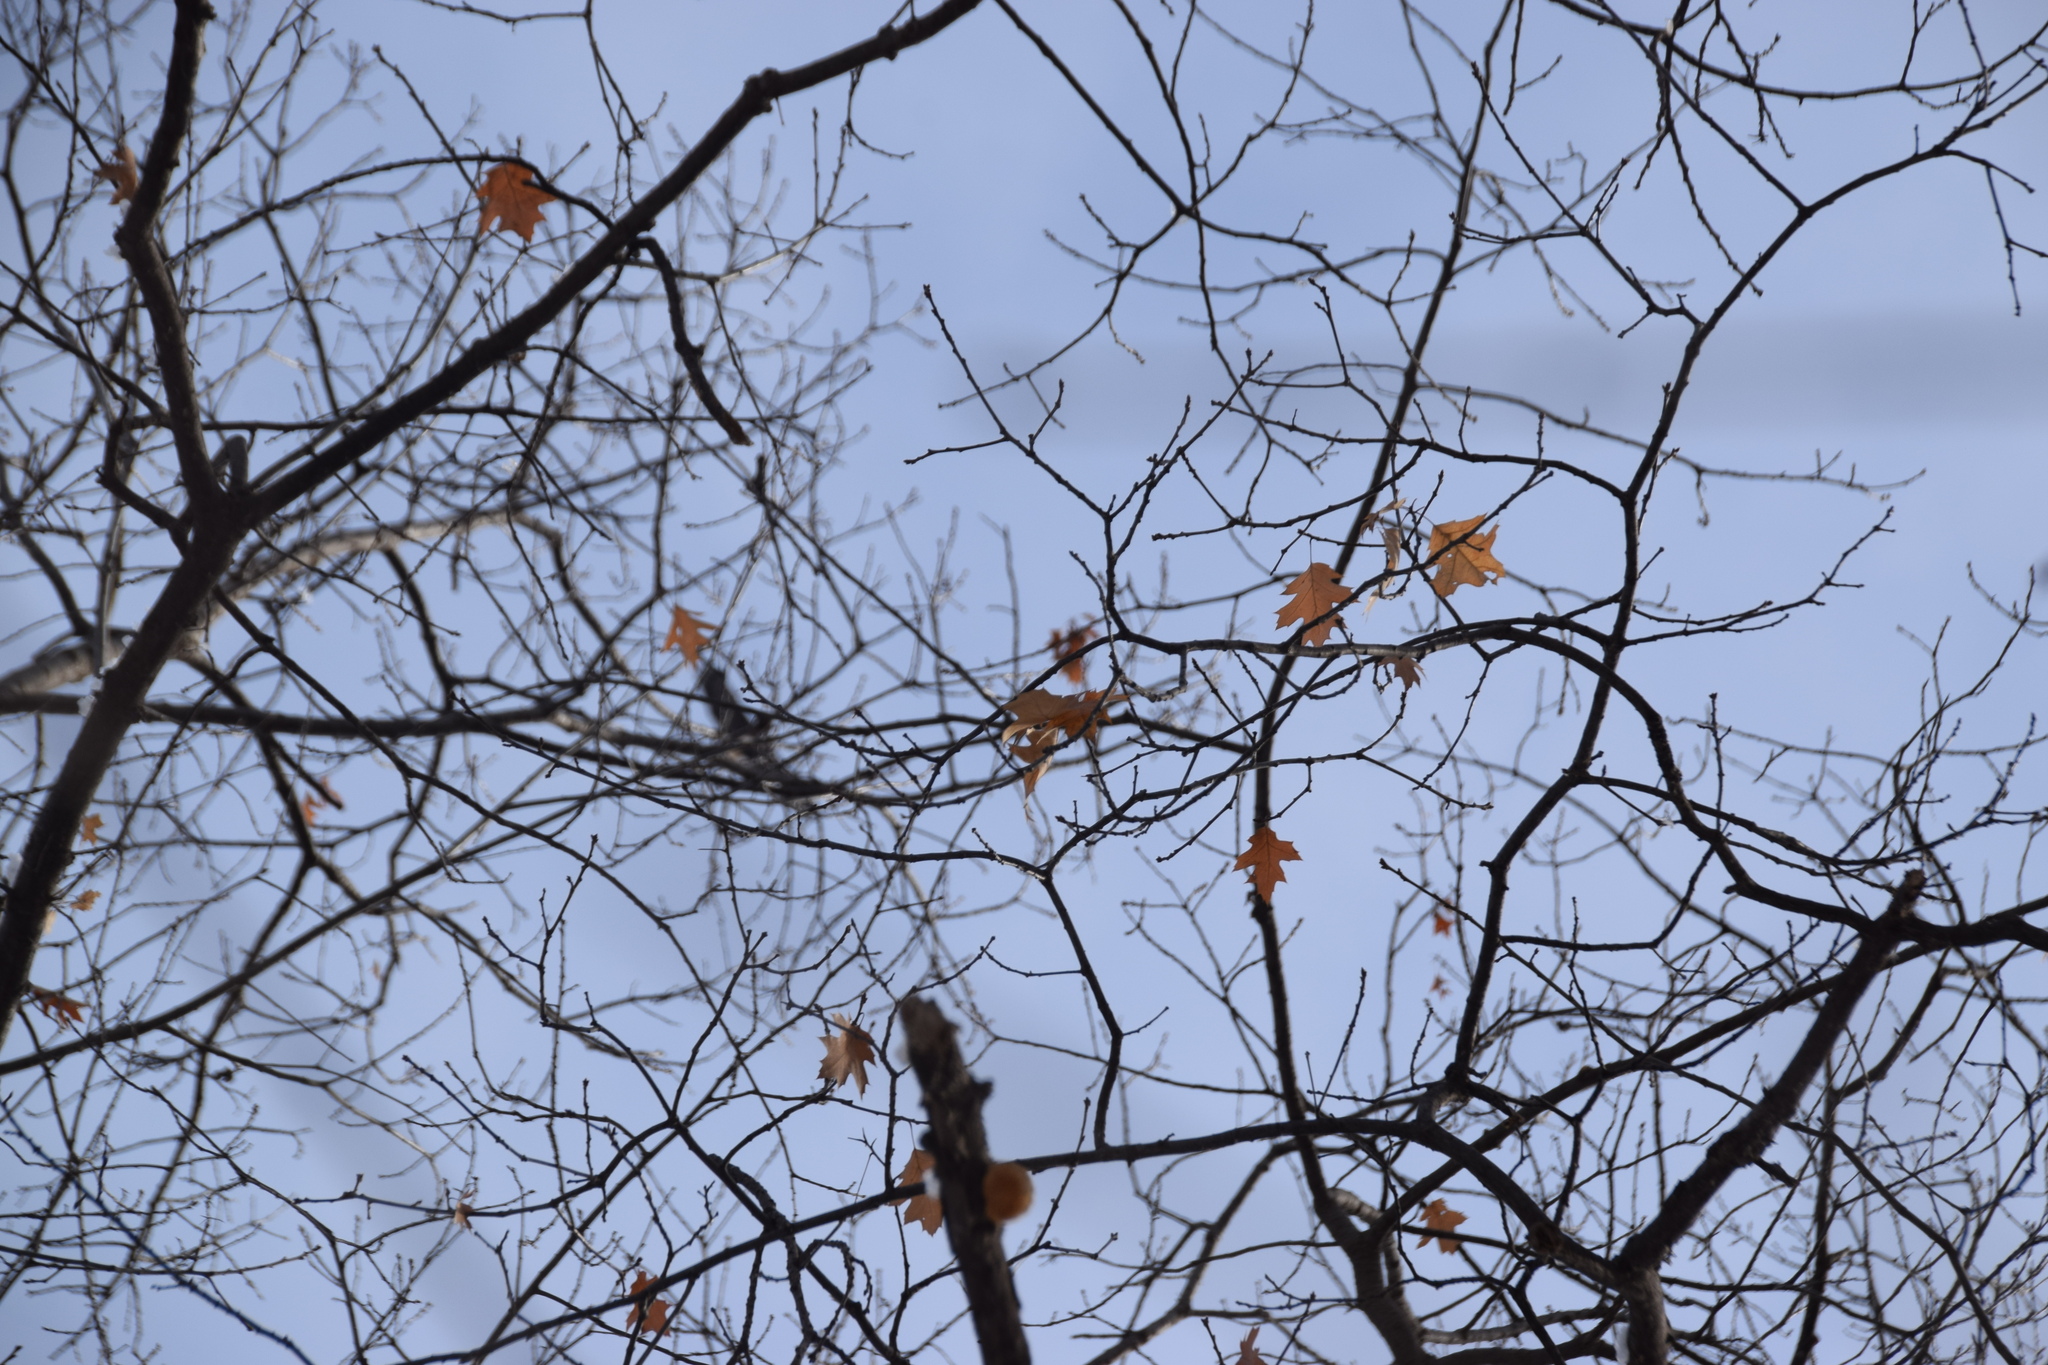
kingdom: Plantae
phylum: Tracheophyta
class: Magnoliopsida
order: Fagales
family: Fagaceae
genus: Quercus
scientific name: Quercus rubra
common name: Red oak
